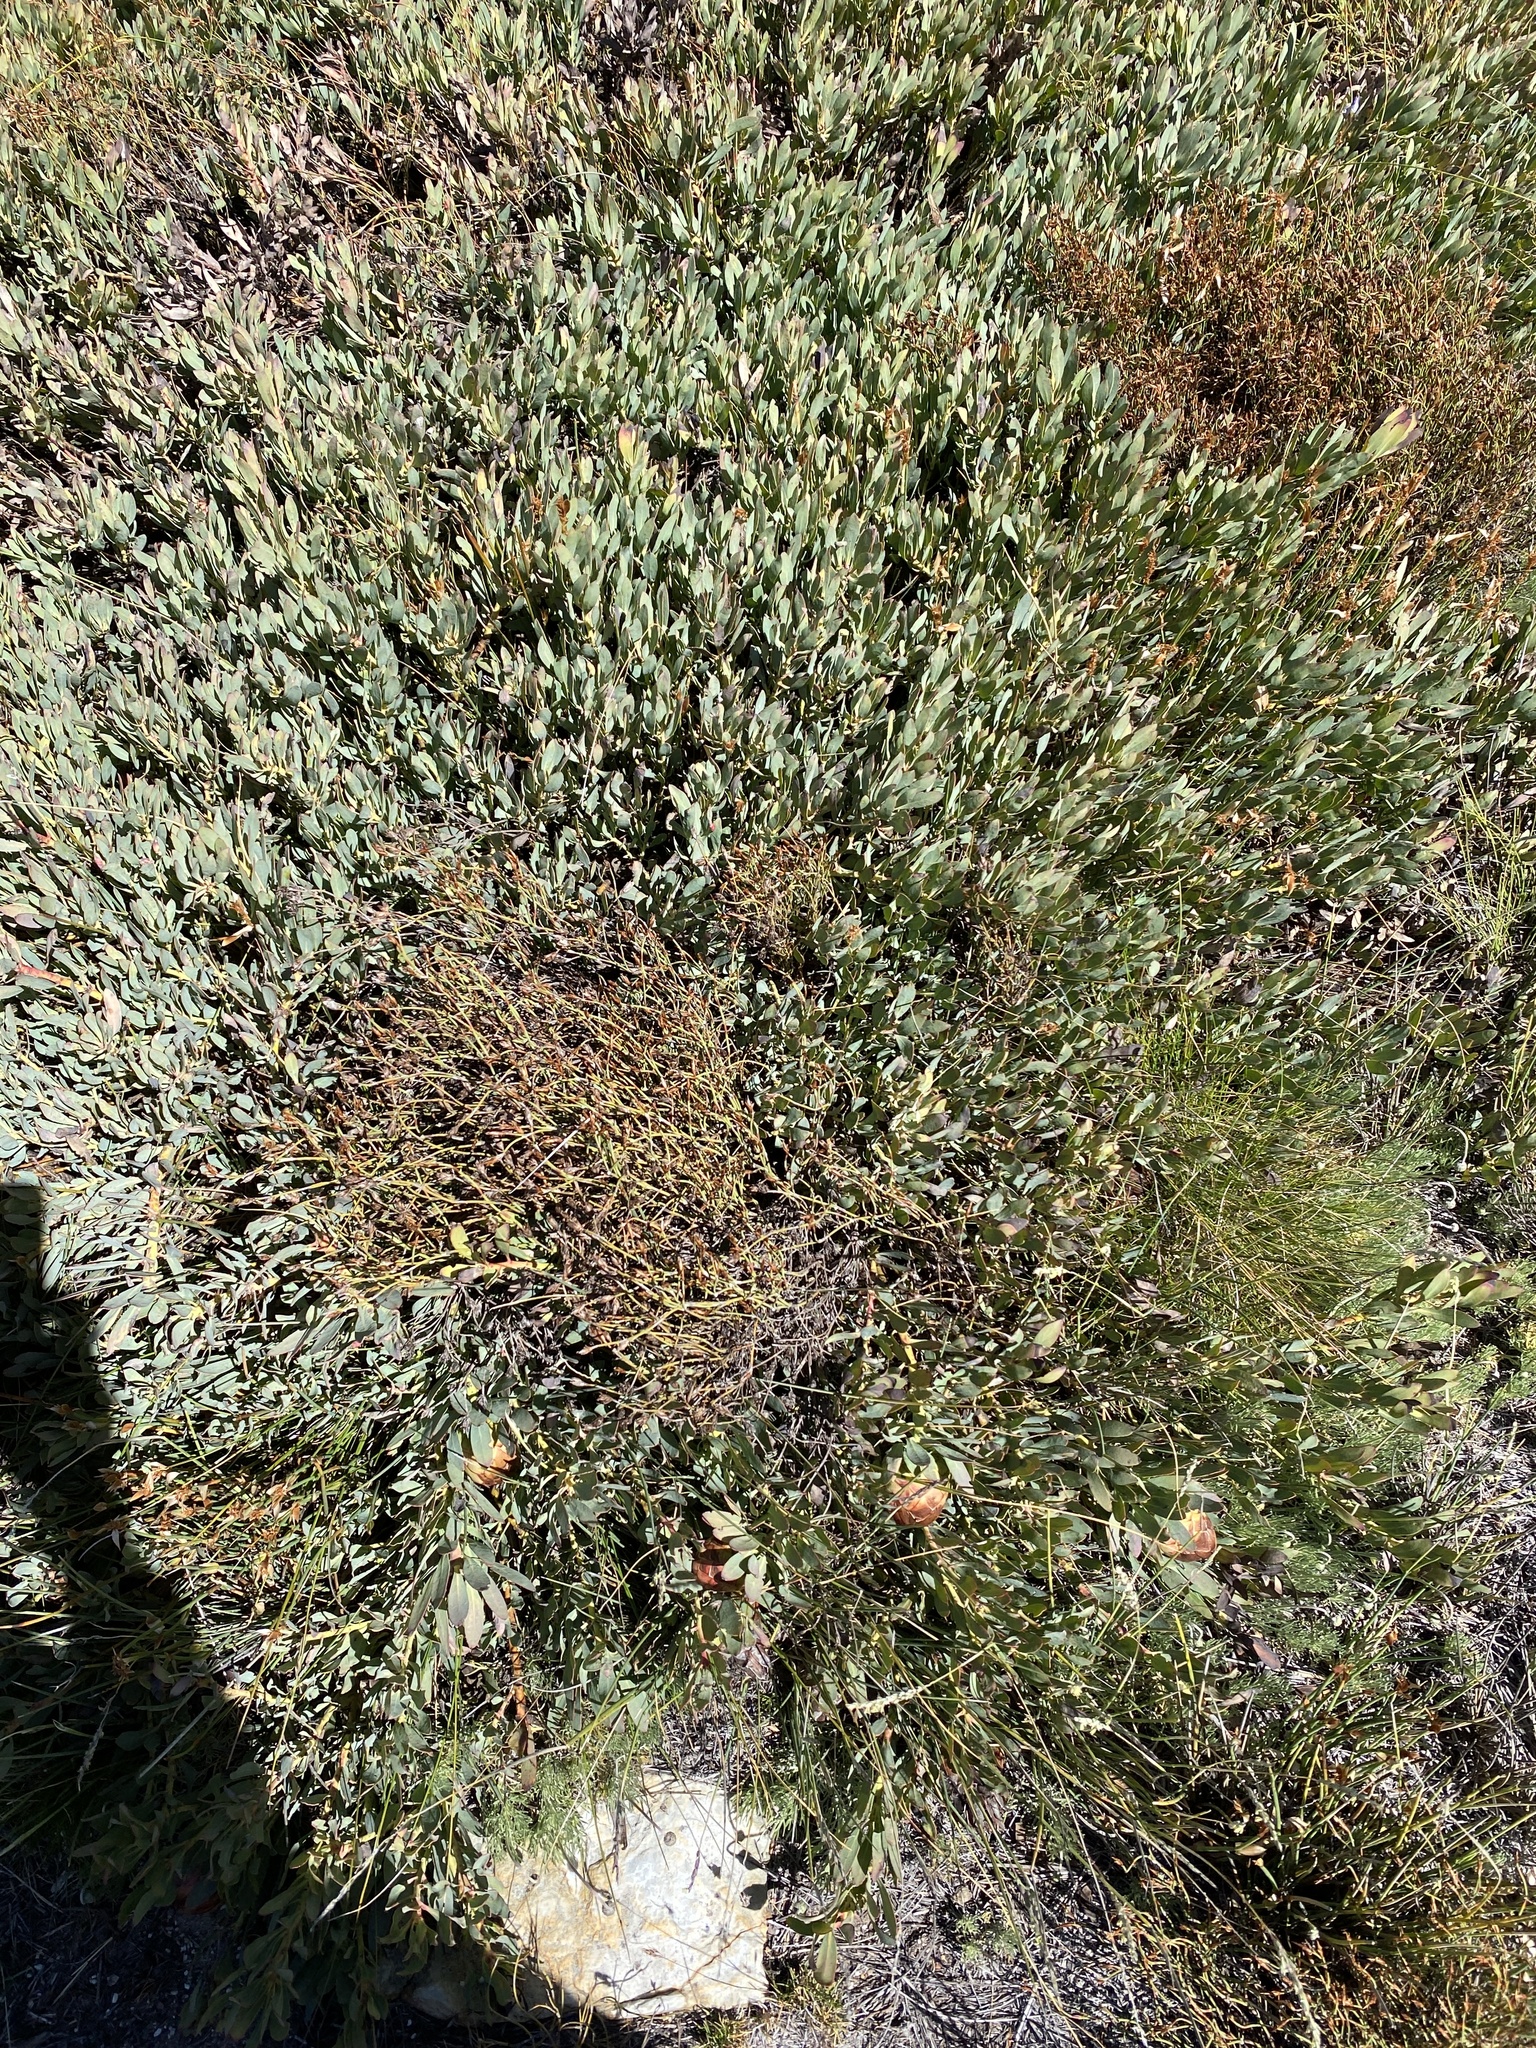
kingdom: Plantae
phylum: Tracheophyta
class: Magnoliopsida
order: Proteales
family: Proteaceae
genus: Protea
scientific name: Protea effusa
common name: Scarlet sugarbush
